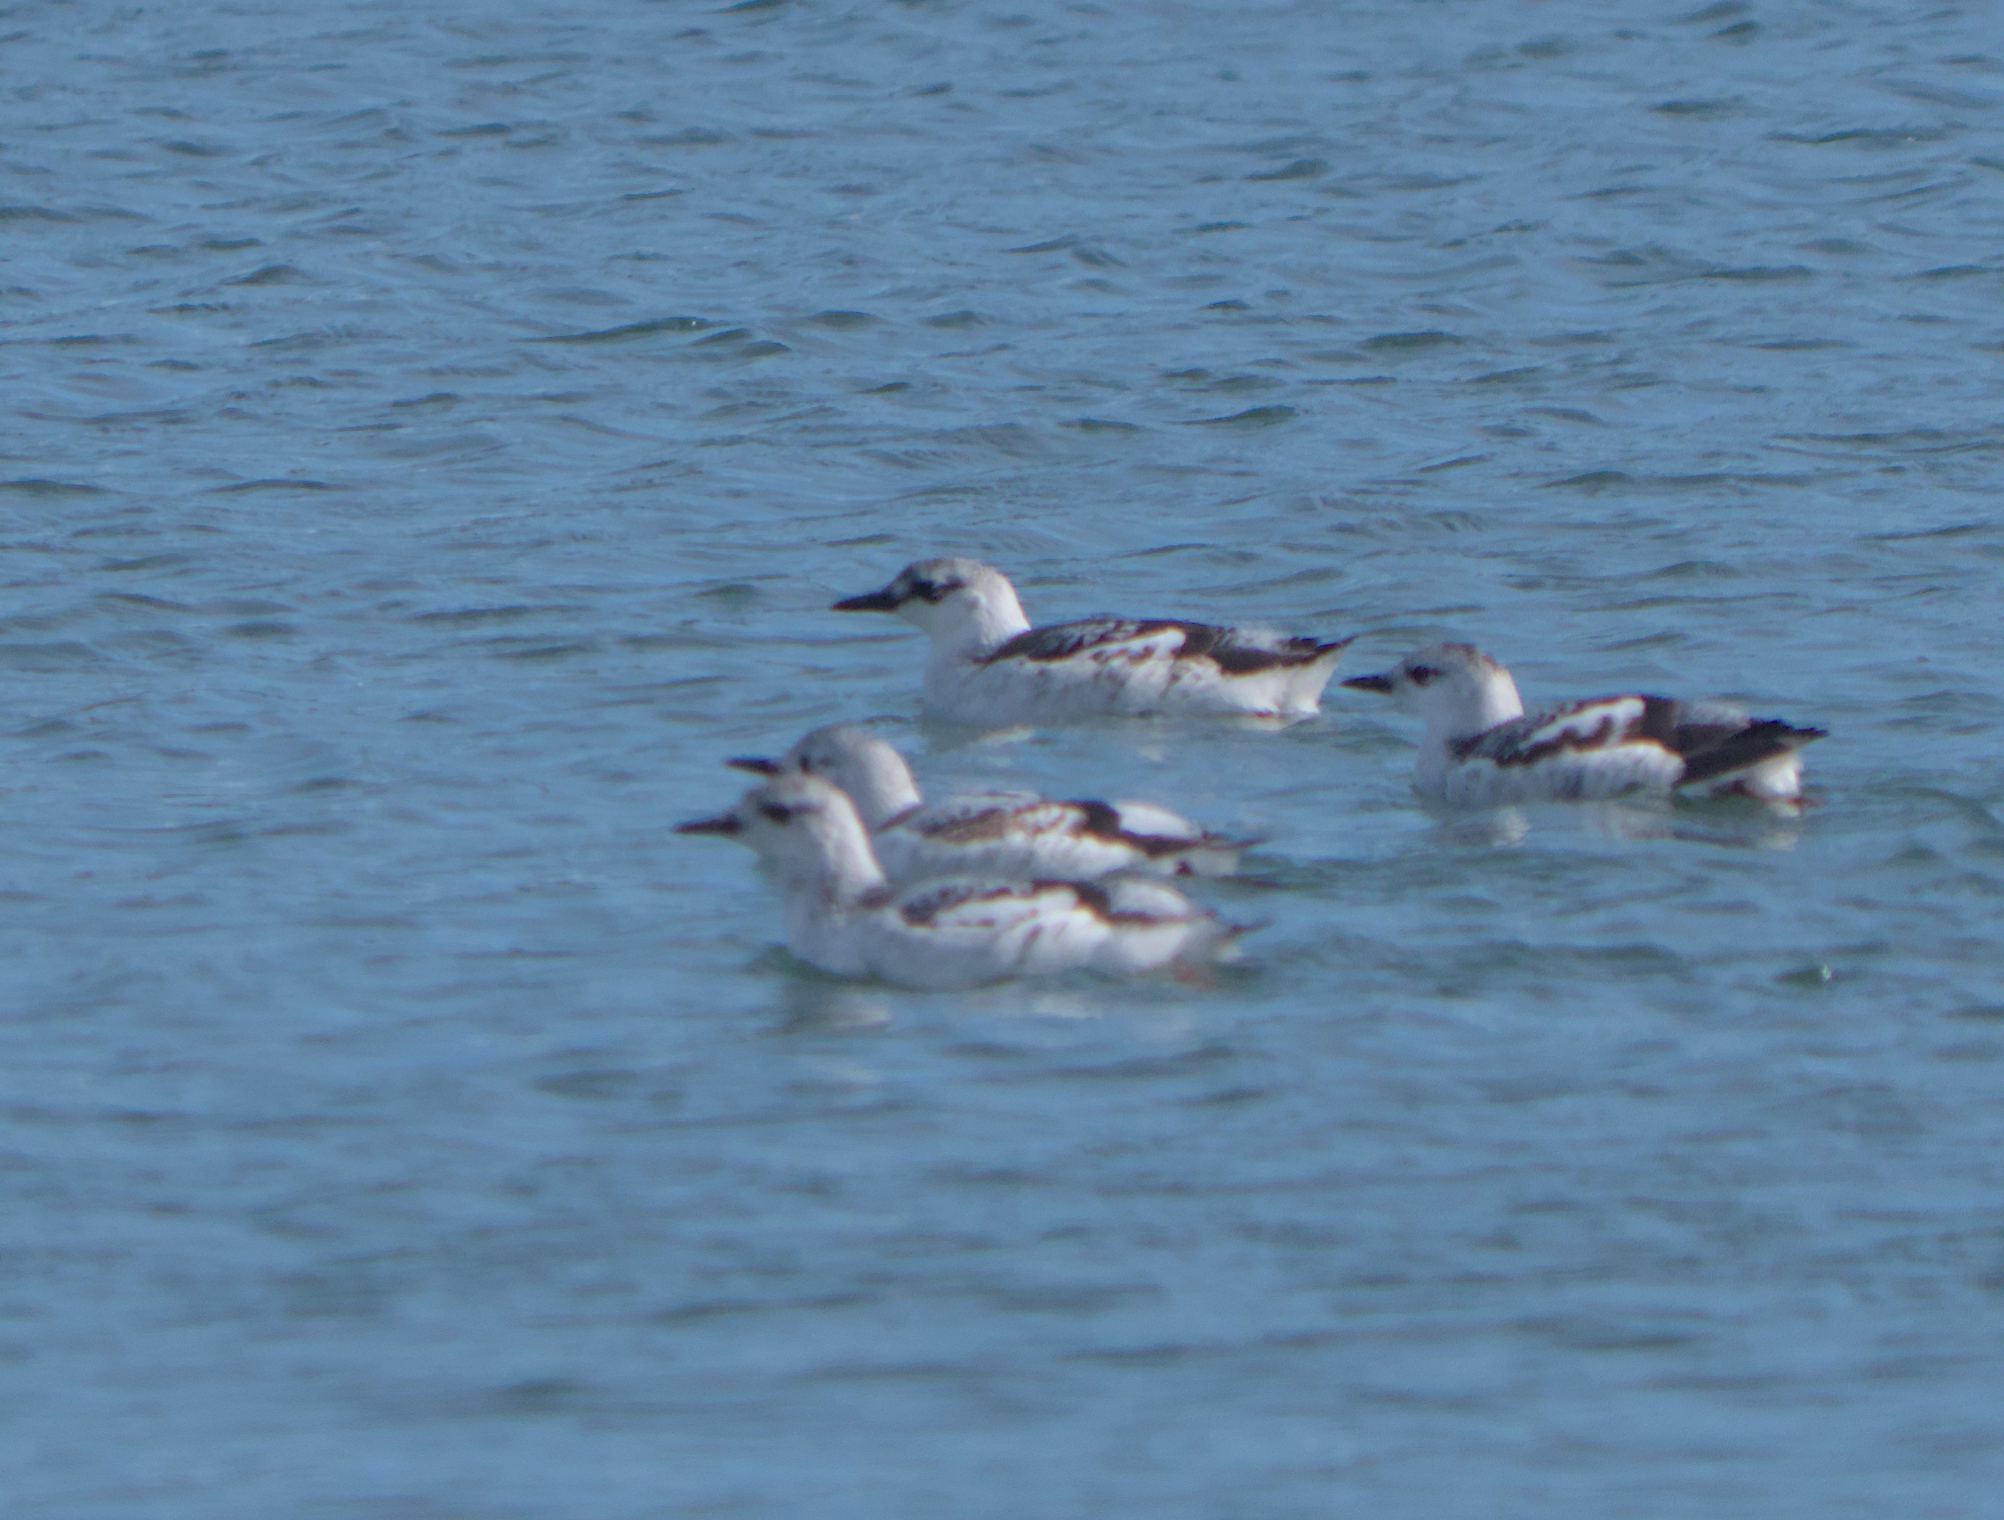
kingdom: Animalia
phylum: Chordata
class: Aves
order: Charadriiformes
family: Alcidae
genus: Cepphus
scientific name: Cepphus grylle
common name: Black guillemot
